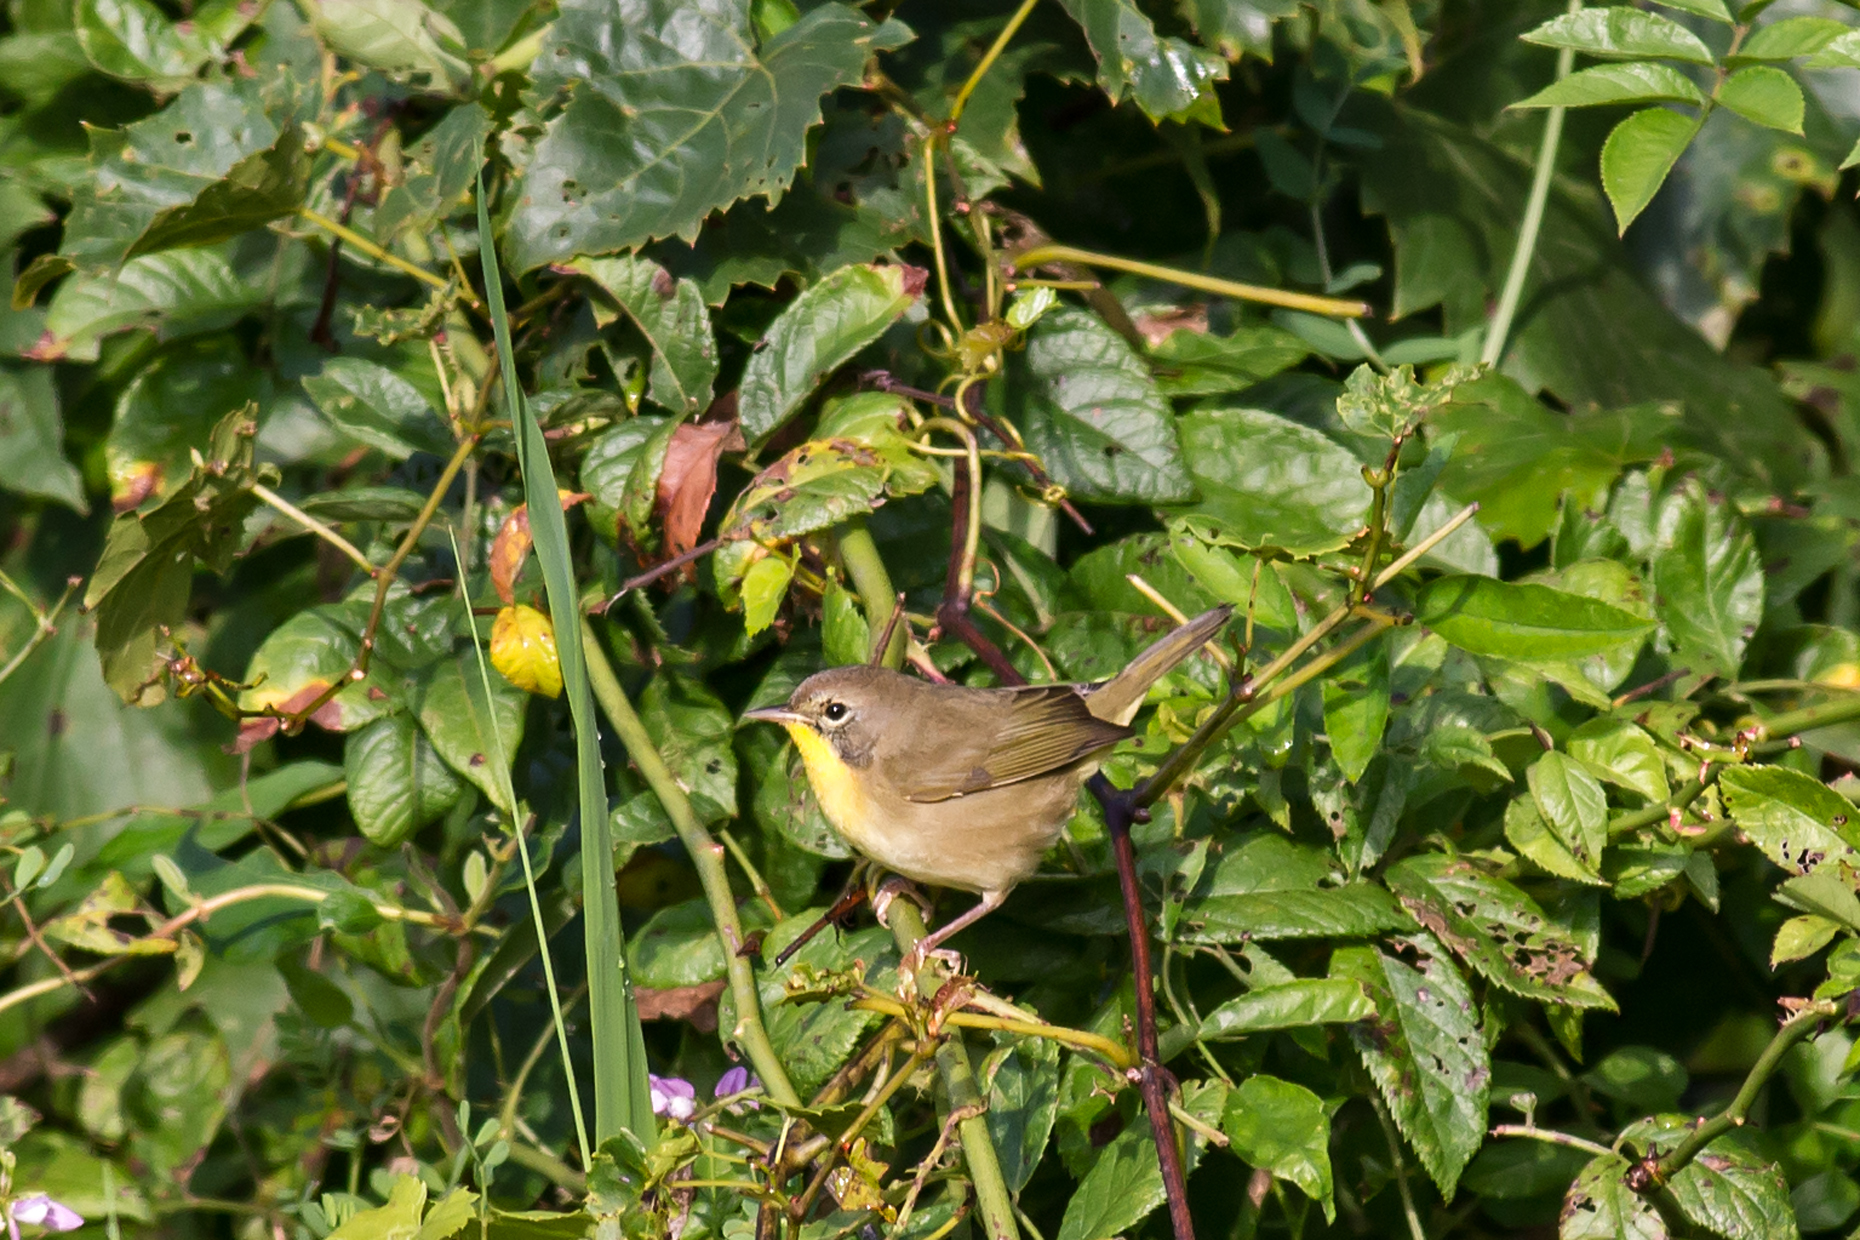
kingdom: Animalia
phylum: Chordata
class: Aves
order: Passeriformes
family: Parulidae
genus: Geothlypis
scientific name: Geothlypis trichas
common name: Common yellowthroat
